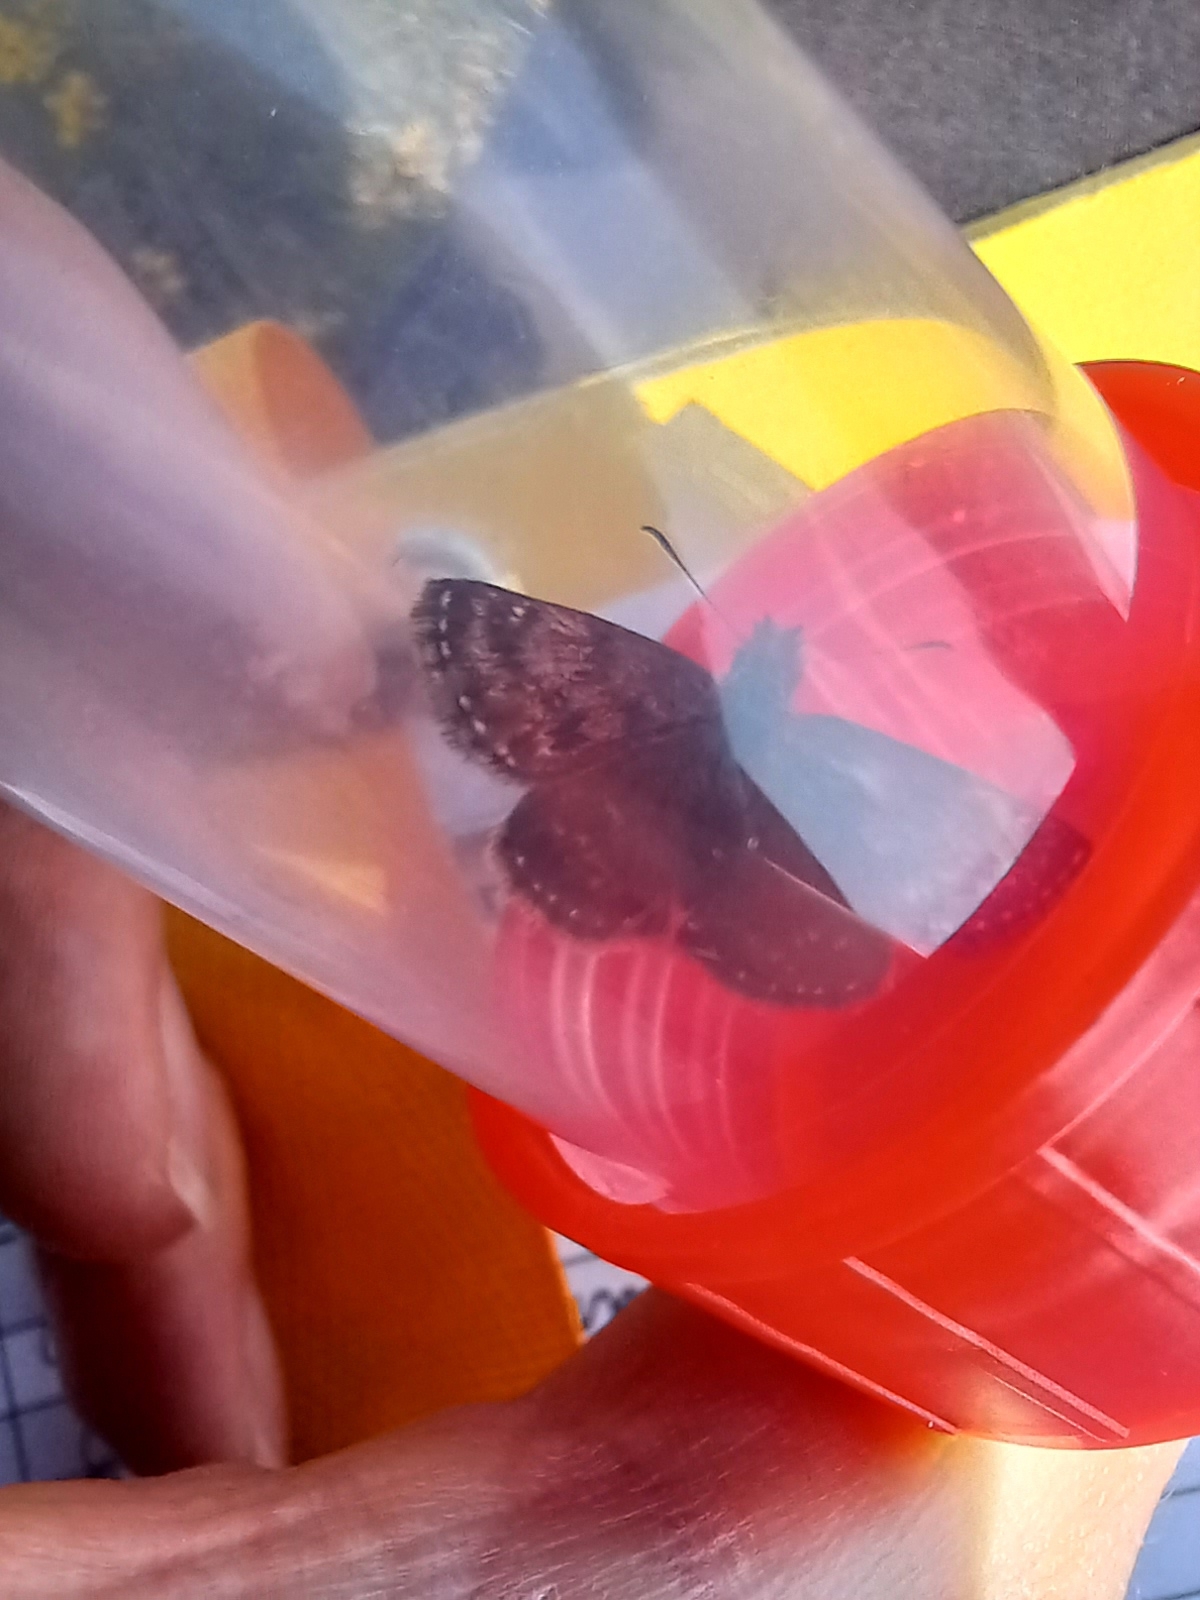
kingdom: Animalia
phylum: Arthropoda
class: Insecta
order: Lepidoptera
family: Hesperiidae
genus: Erynnis
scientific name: Erynnis tages
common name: Dingy skipper
